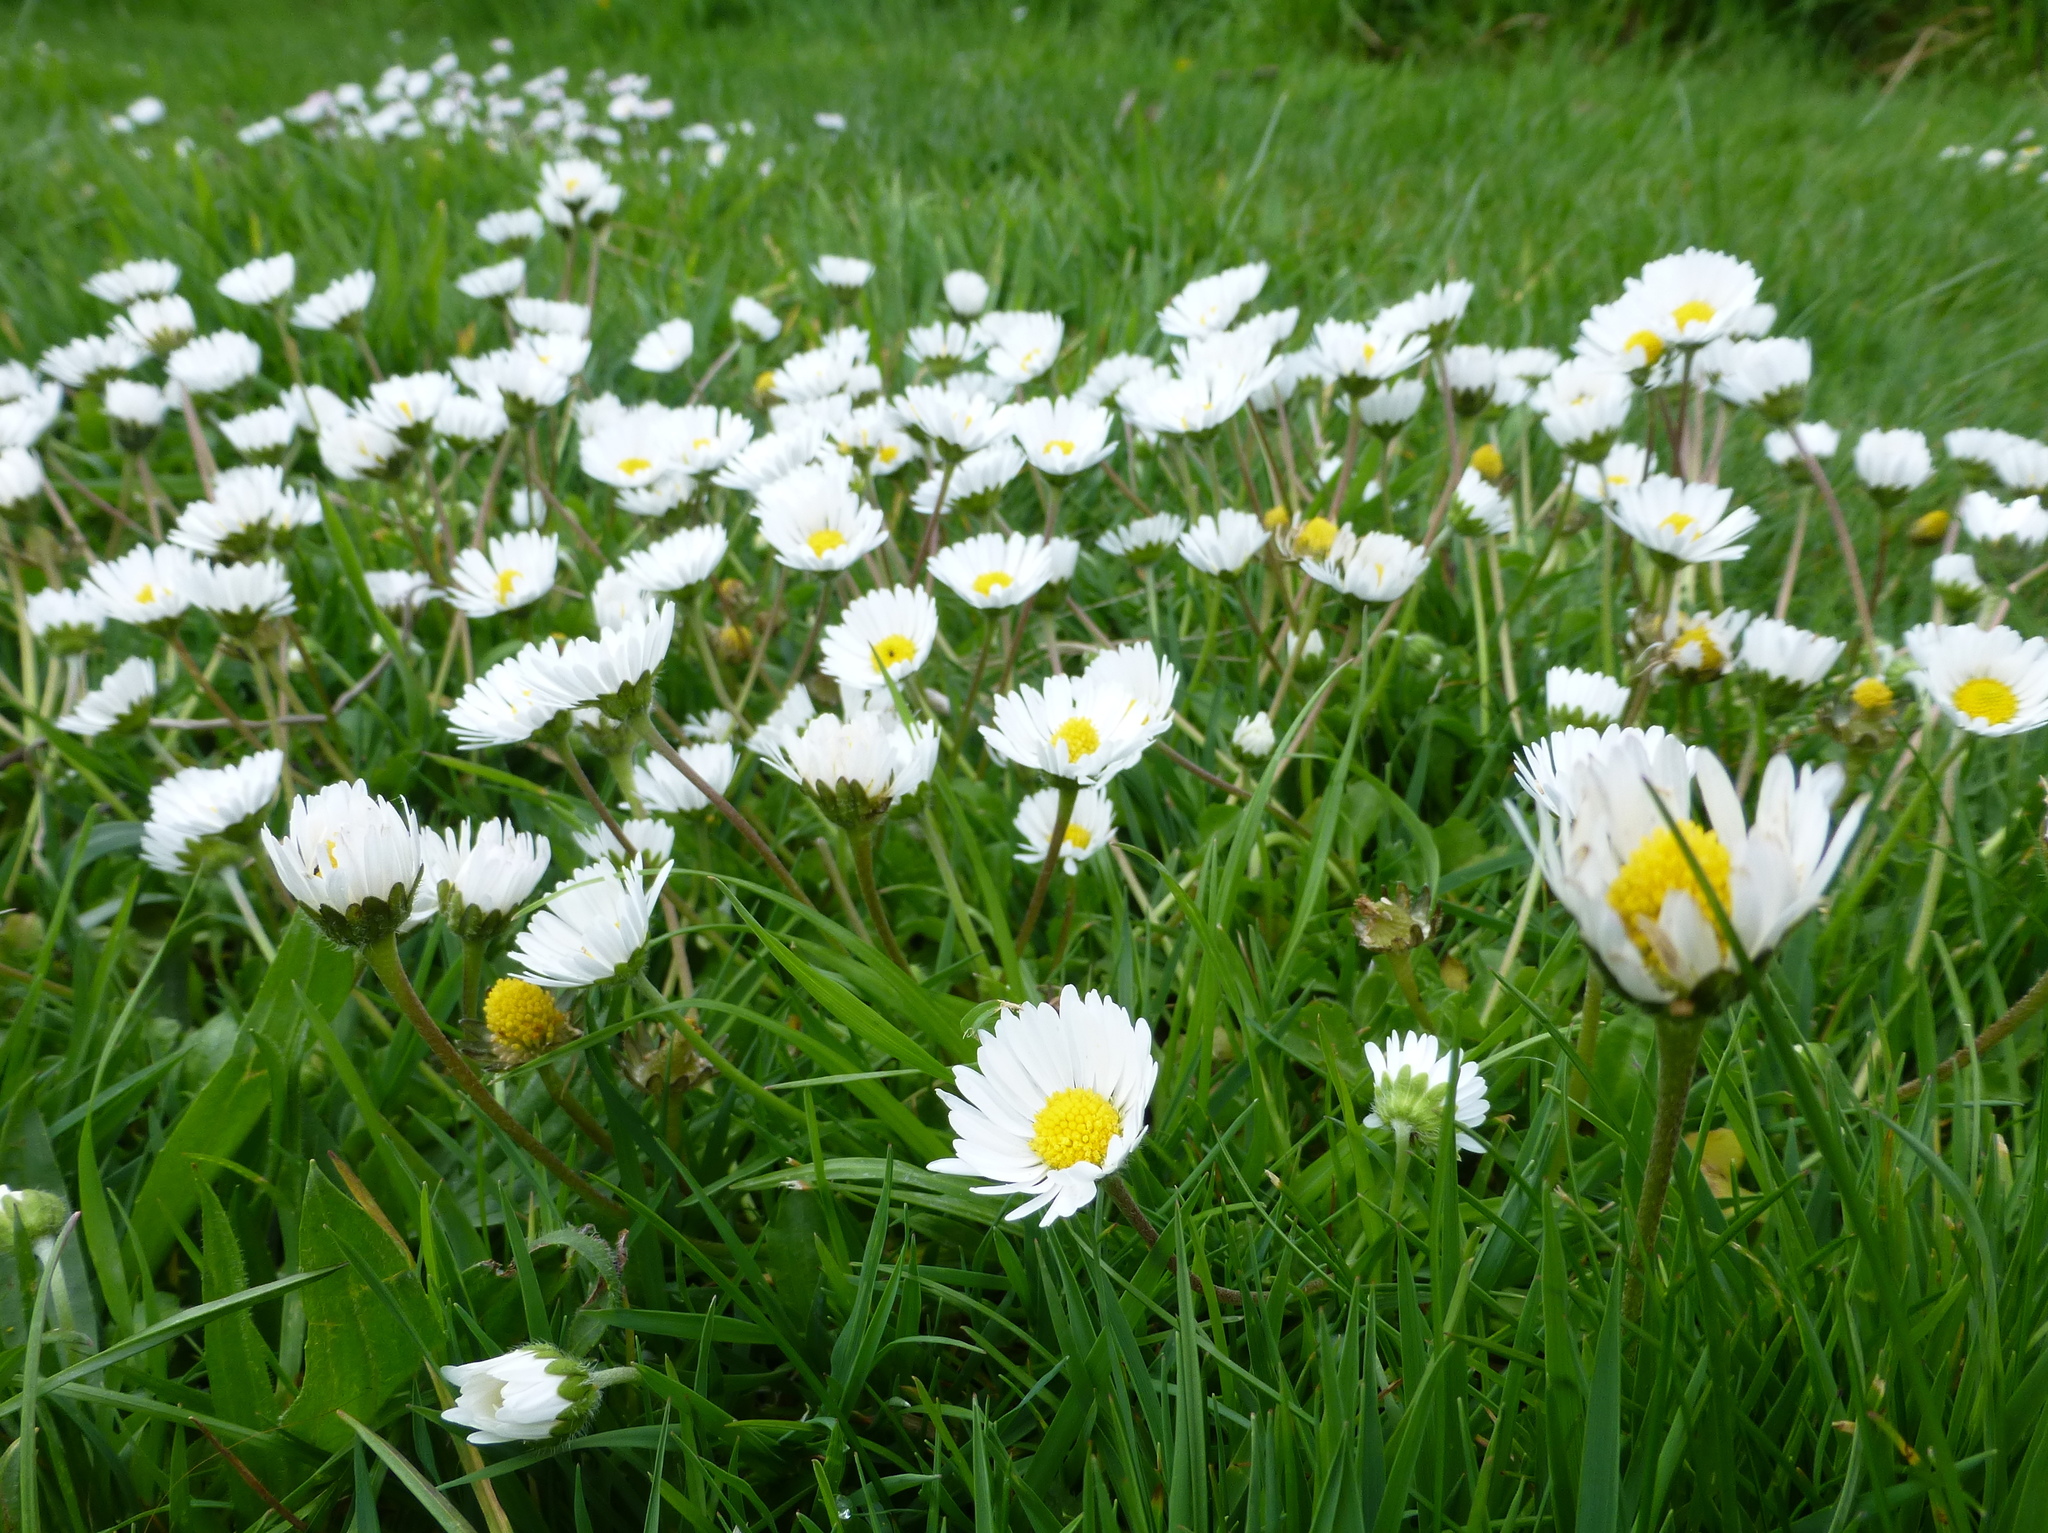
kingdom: Plantae
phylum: Tracheophyta
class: Magnoliopsida
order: Asterales
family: Asteraceae
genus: Bellis
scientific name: Bellis perennis
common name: Lawndaisy
